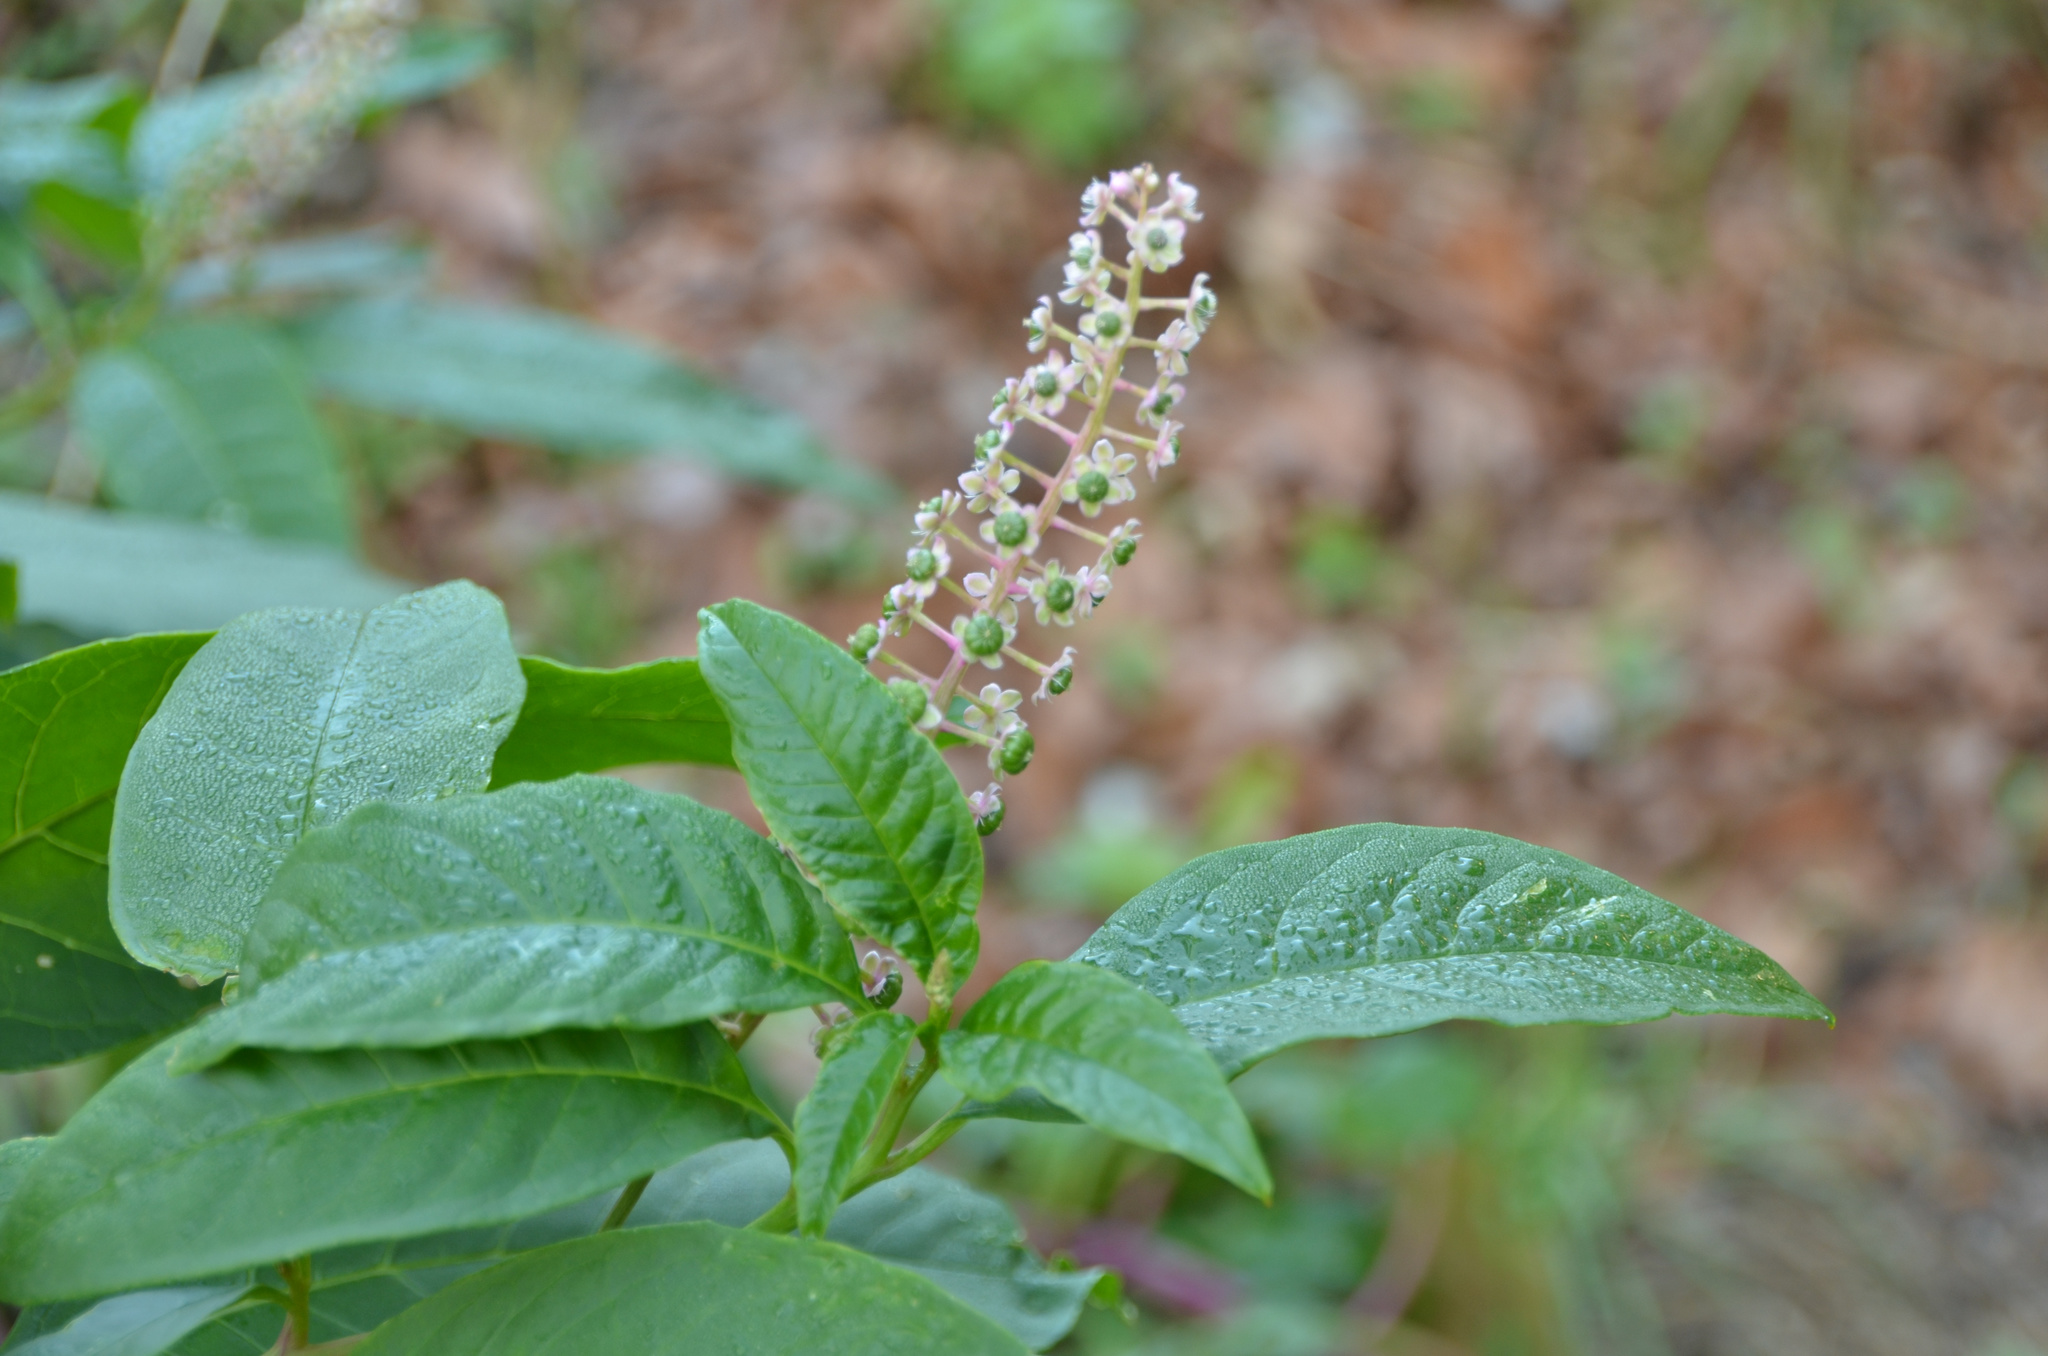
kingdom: Plantae
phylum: Tracheophyta
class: Magnoliopsida
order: Caryophyllales
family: Phytolaccaceae
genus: Phytolacca
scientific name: Phytolacca americana
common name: American pokeweed
